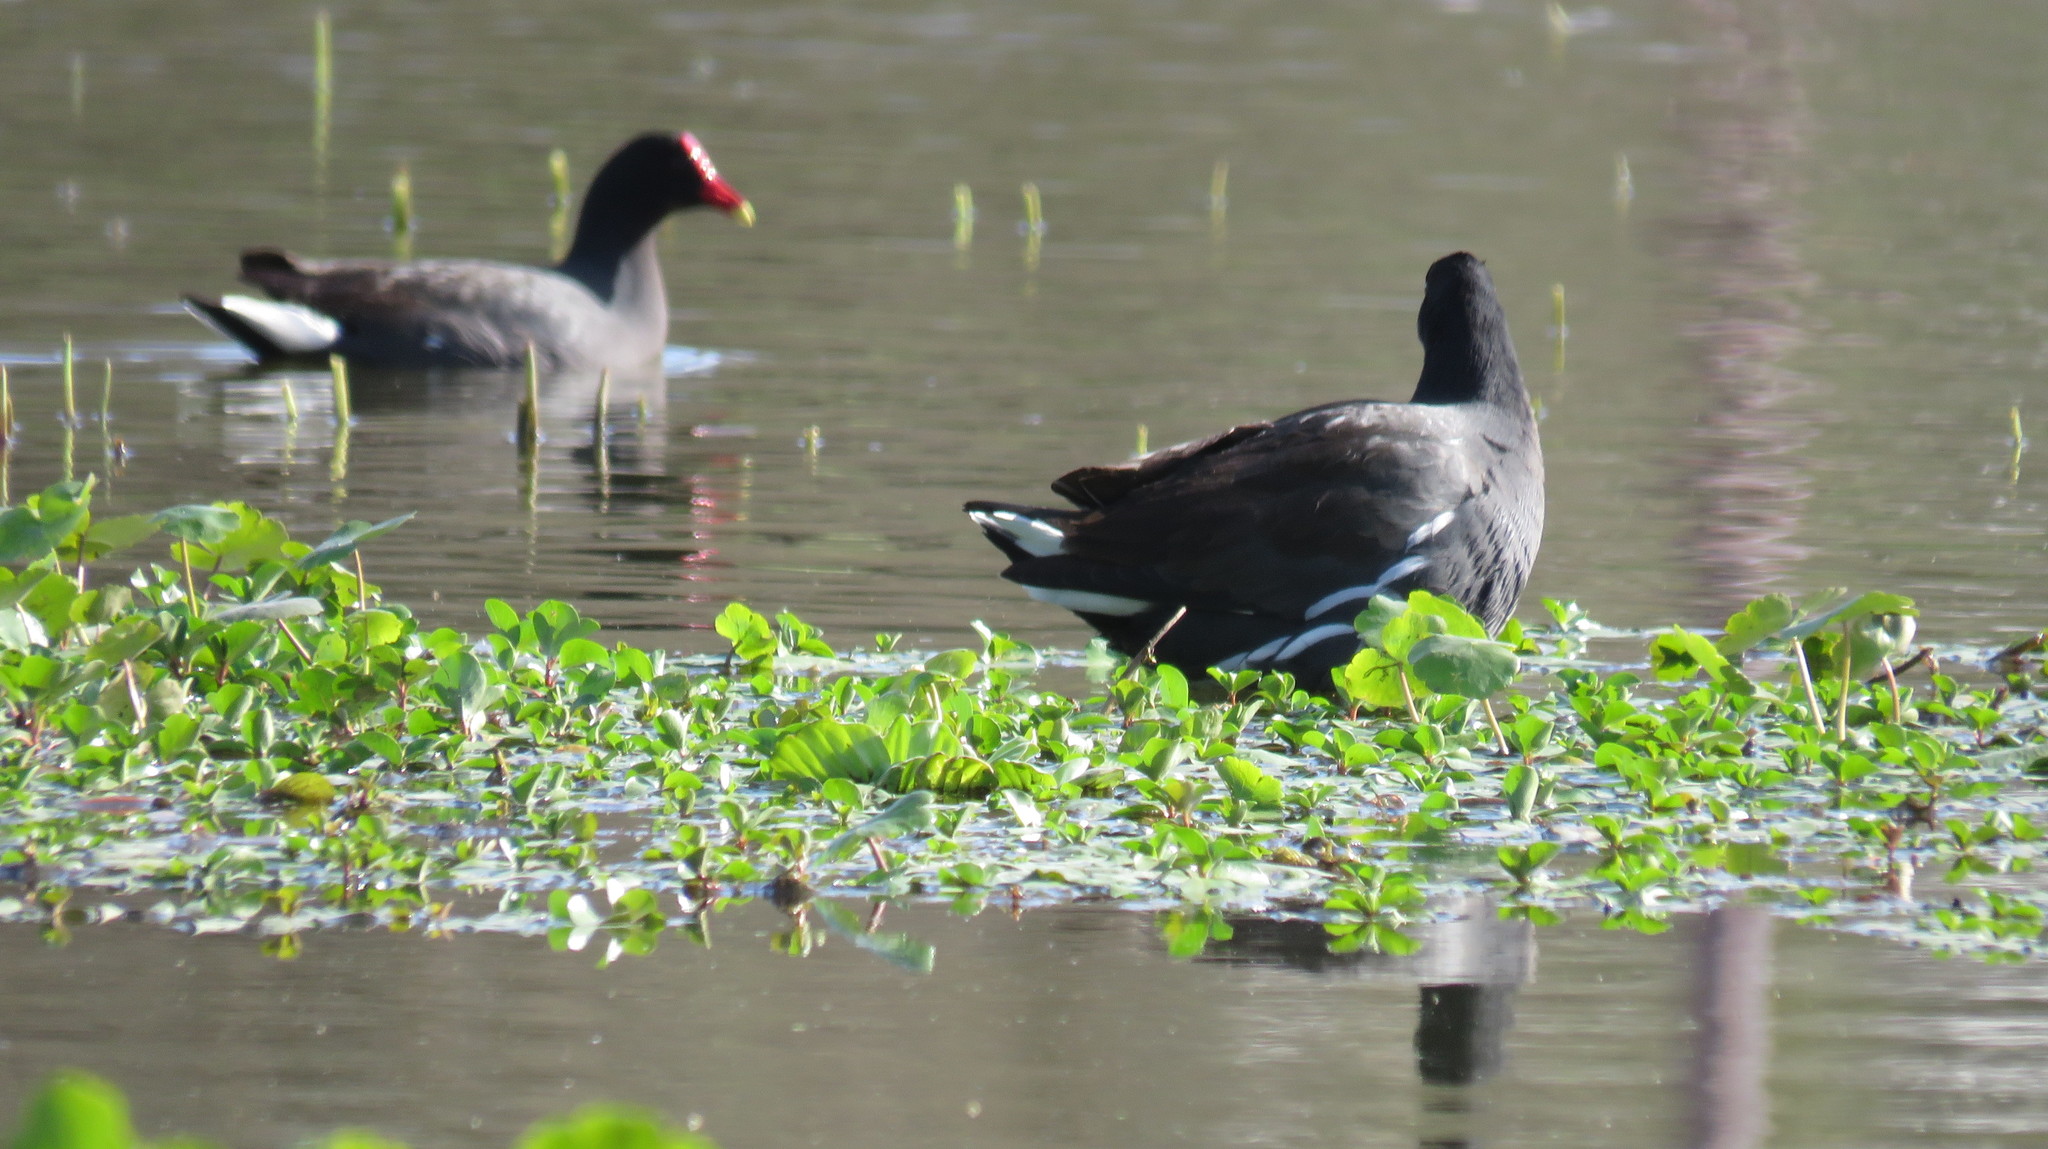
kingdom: Animalia
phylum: Chordata
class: Aves
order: Gruiformes
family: Rallidae
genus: Gallinula
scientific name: Gallinula chloropus
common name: Common moorhen
